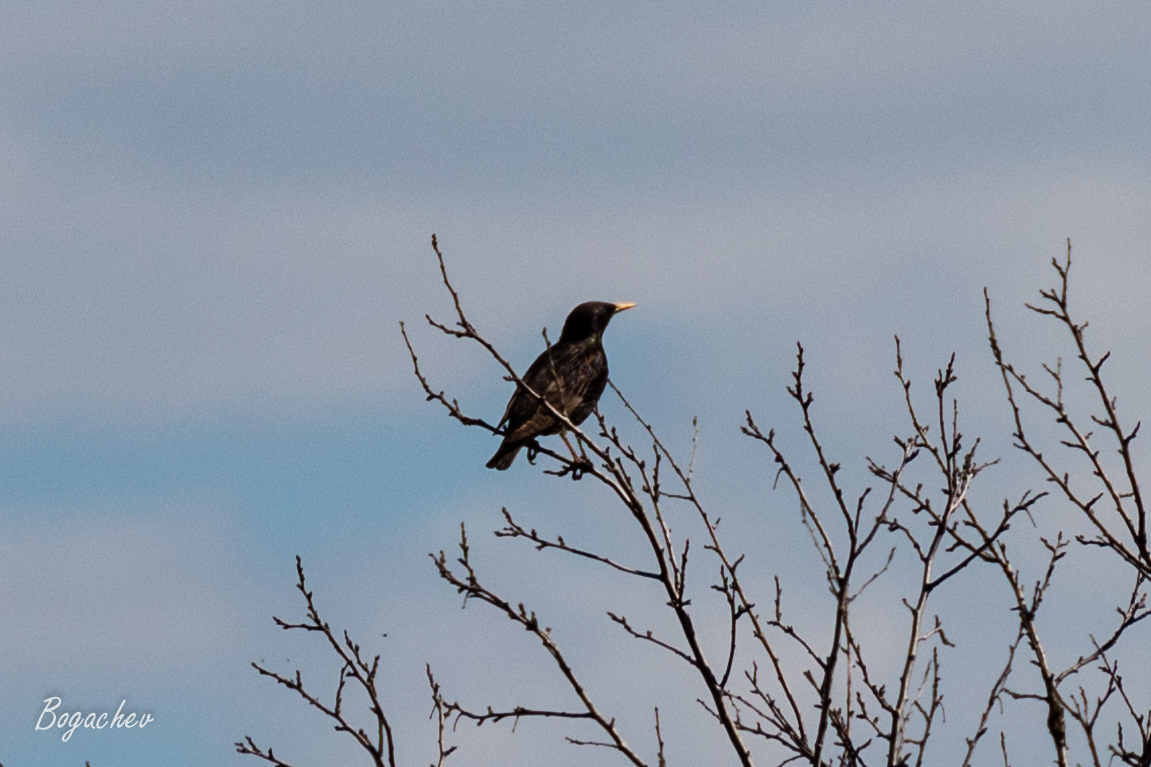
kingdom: Animalia
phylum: Chordata
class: Aves
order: Passeriformes
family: Sturnidae
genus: Sturnus
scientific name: Sturnus vulgaris
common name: Common starling
